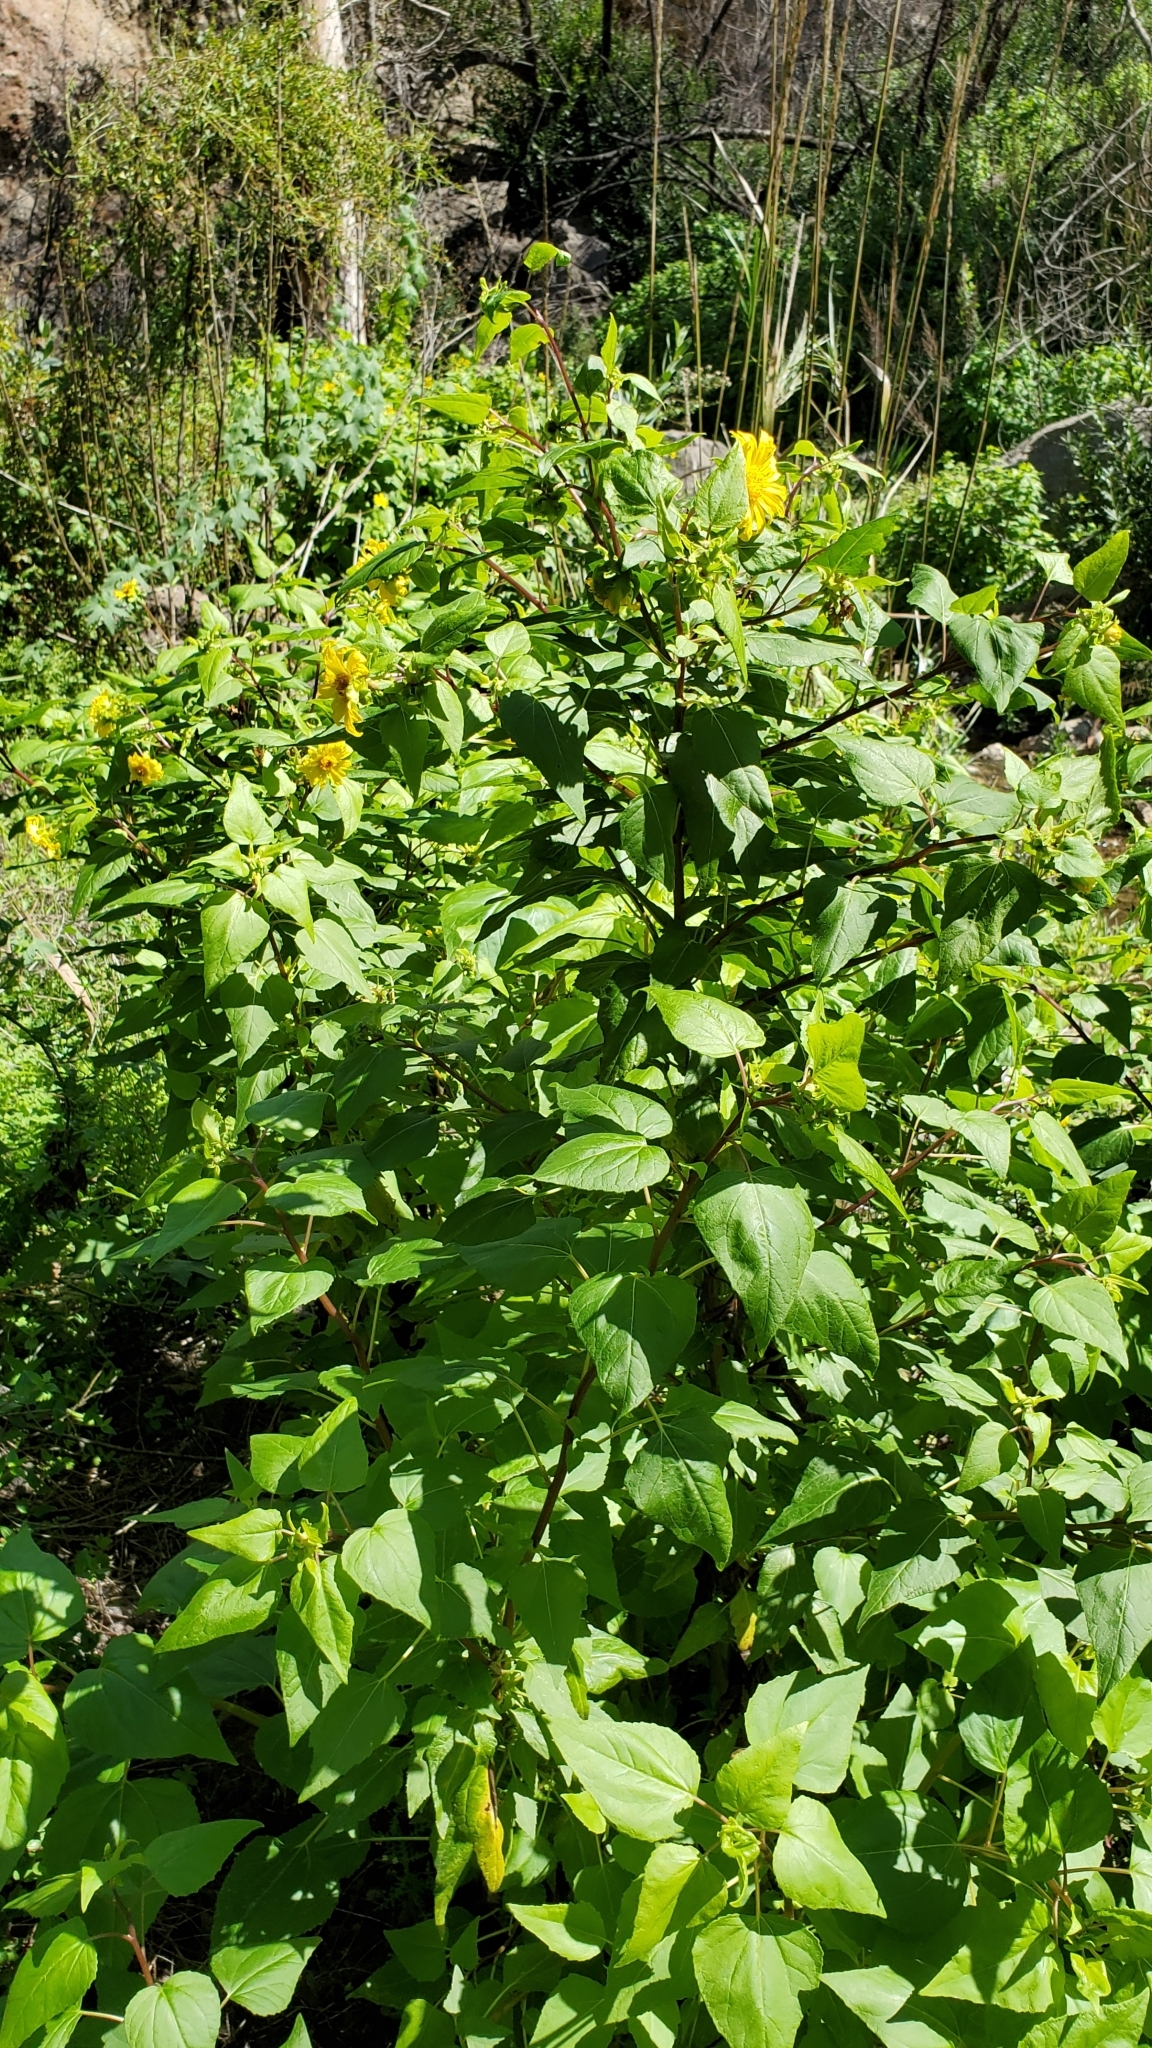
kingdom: Plantae
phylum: Tracheophyta
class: Magnoliopsida
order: Asterales
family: Asteraceae
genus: Venegasia
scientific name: Venegasia carpesioides
